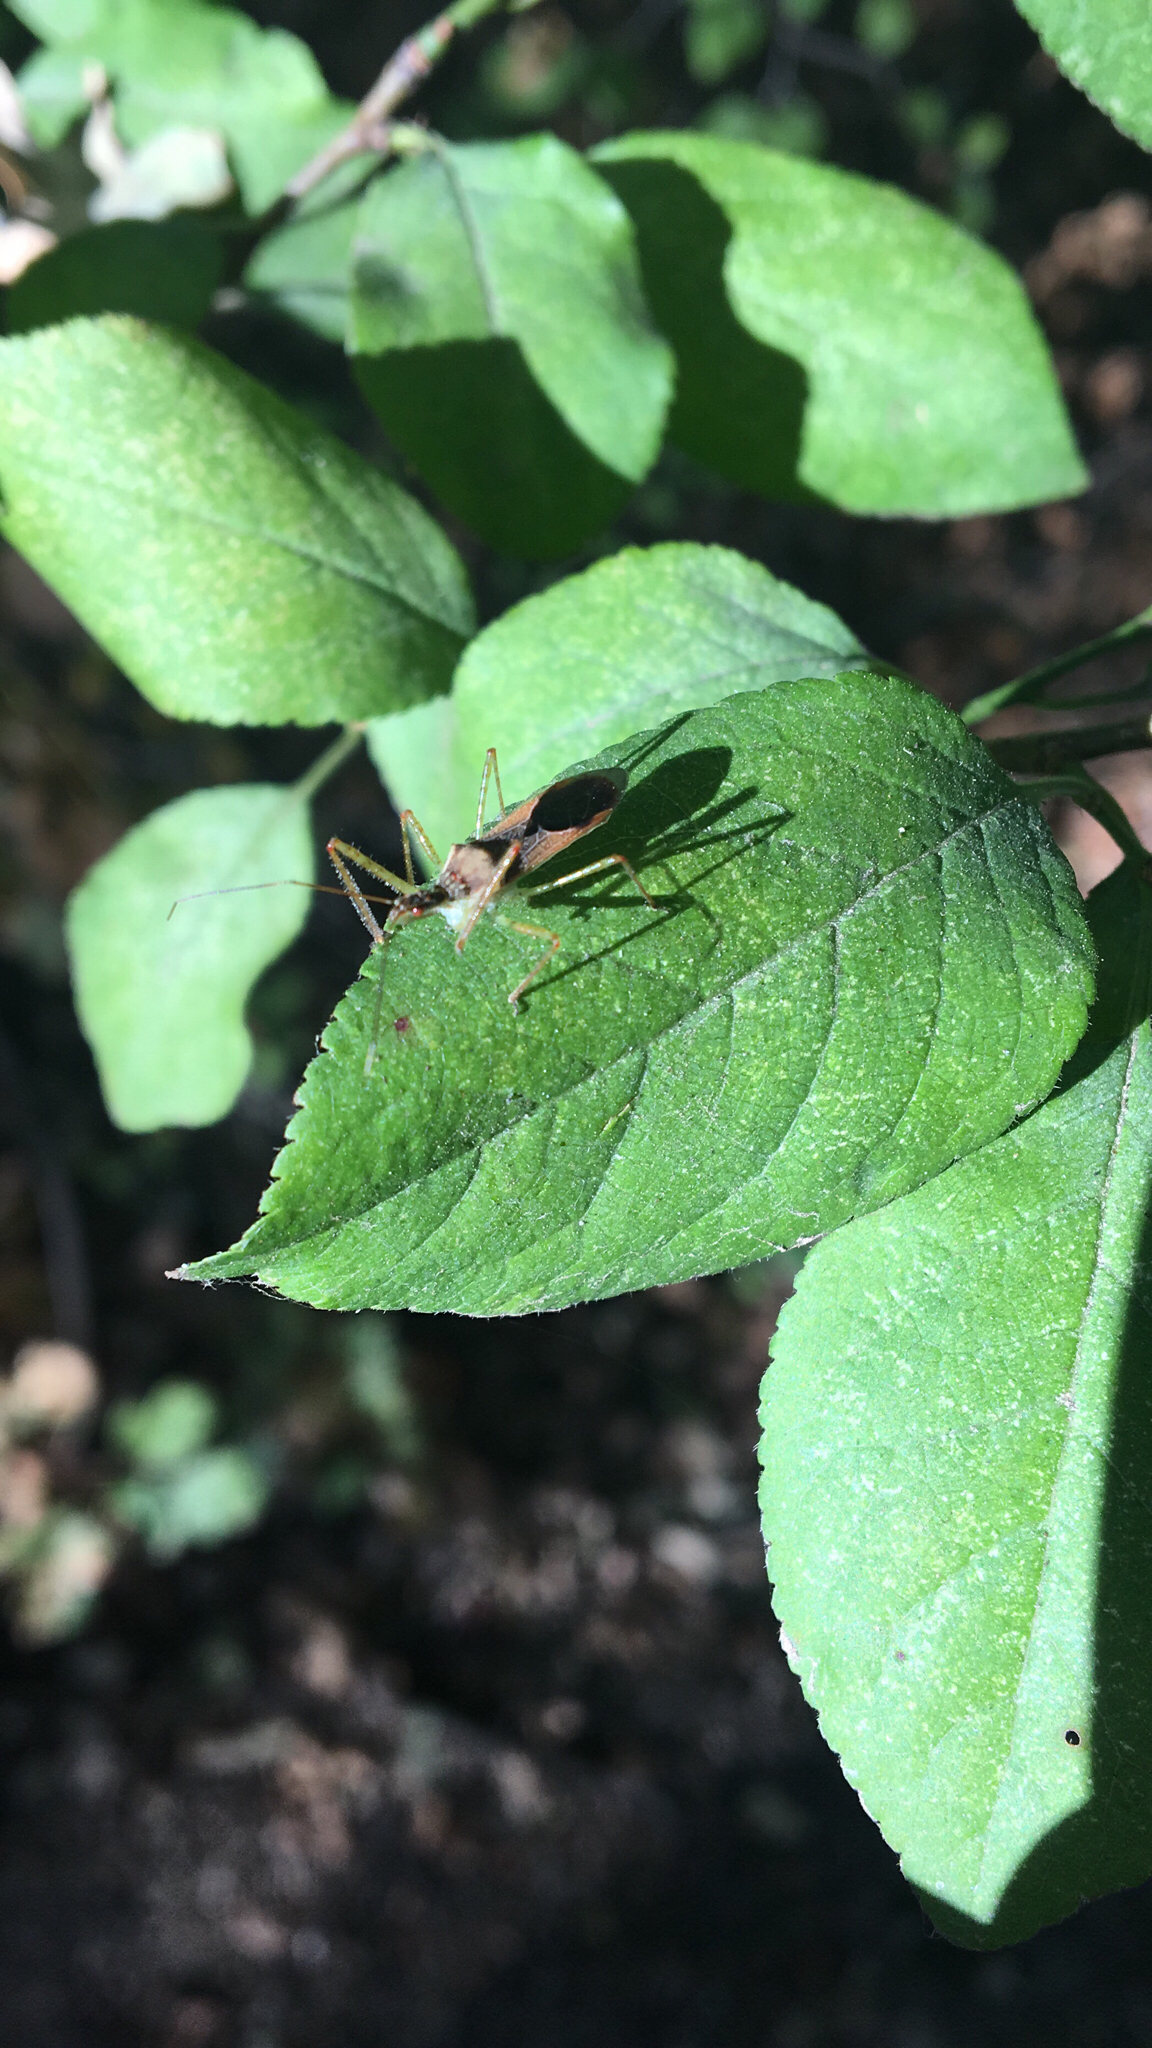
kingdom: Animalia
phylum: Arthropoda
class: Insecta
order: Hemiptera
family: Reduviidae
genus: Zelus
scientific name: Zelus renardii
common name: Assassin bug
